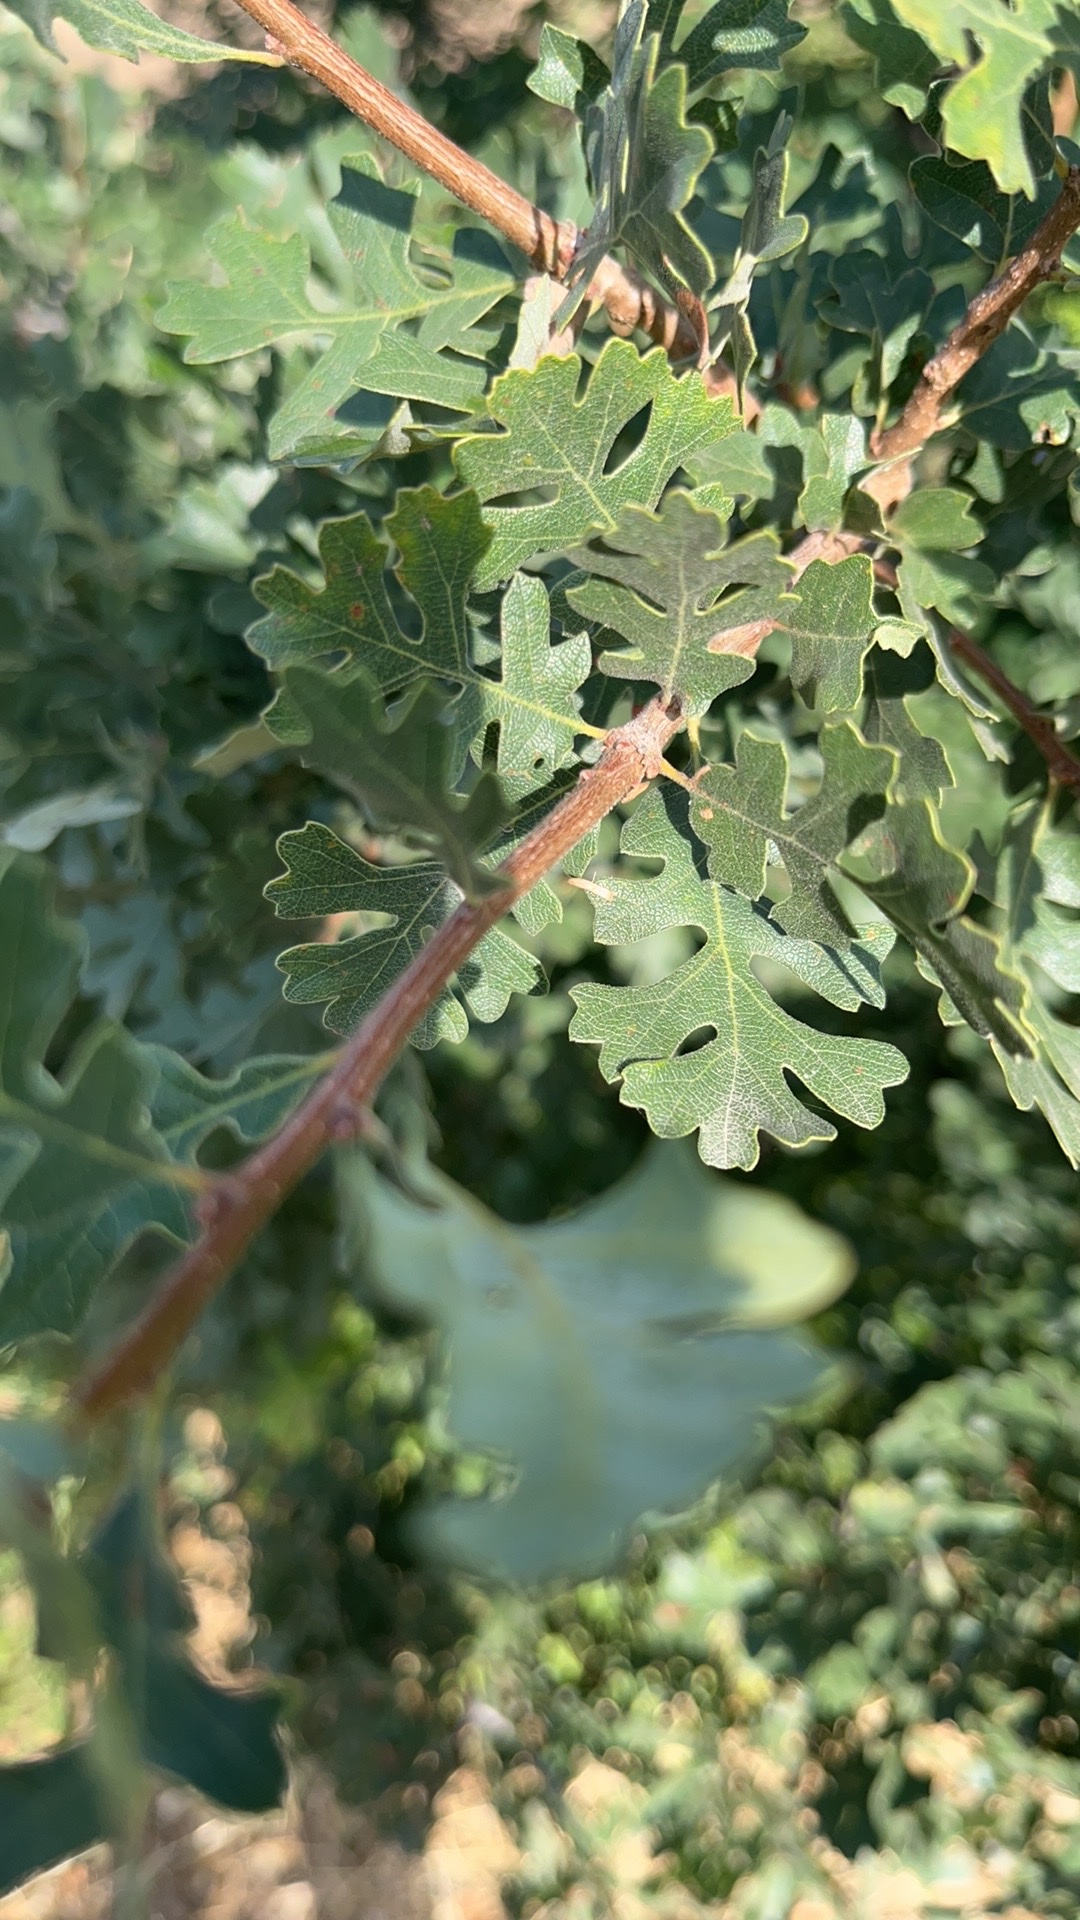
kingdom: Plantae
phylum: Tracheophyta
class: Magnoliopsida
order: Fagales
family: Fagaceae
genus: Quercus
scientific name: Quercus lobata
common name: Valley oak
